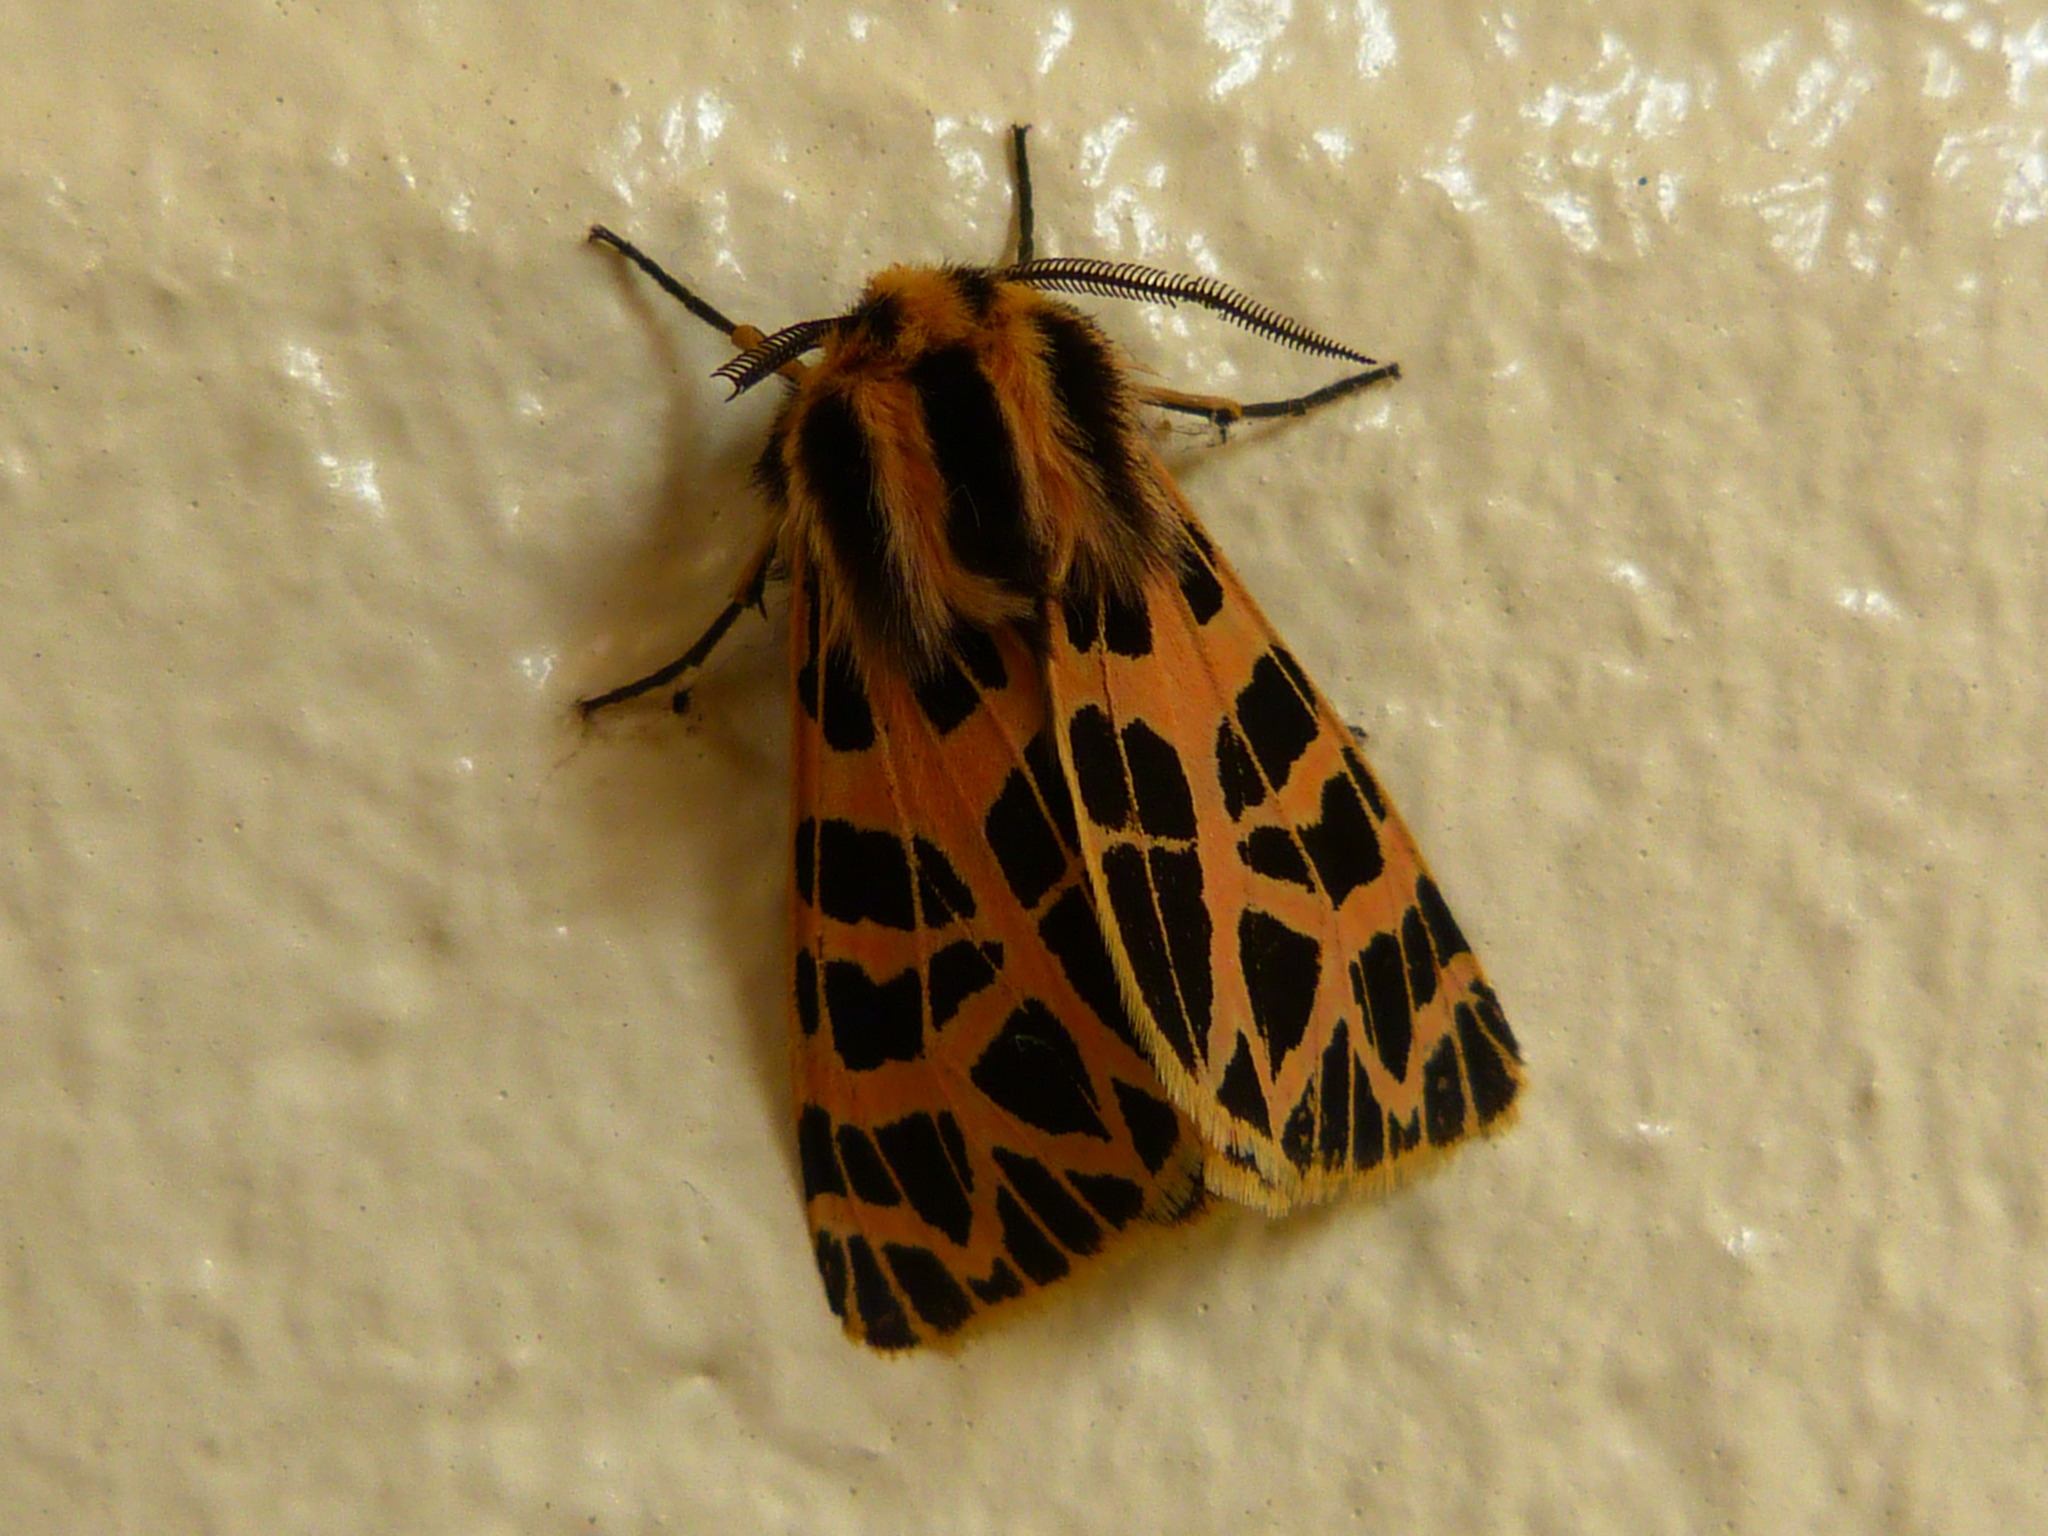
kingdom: Animalia
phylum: Arthropoda
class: Insecta
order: Lepidoptera
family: Erebidae
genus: Apantesis
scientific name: Apantesis
